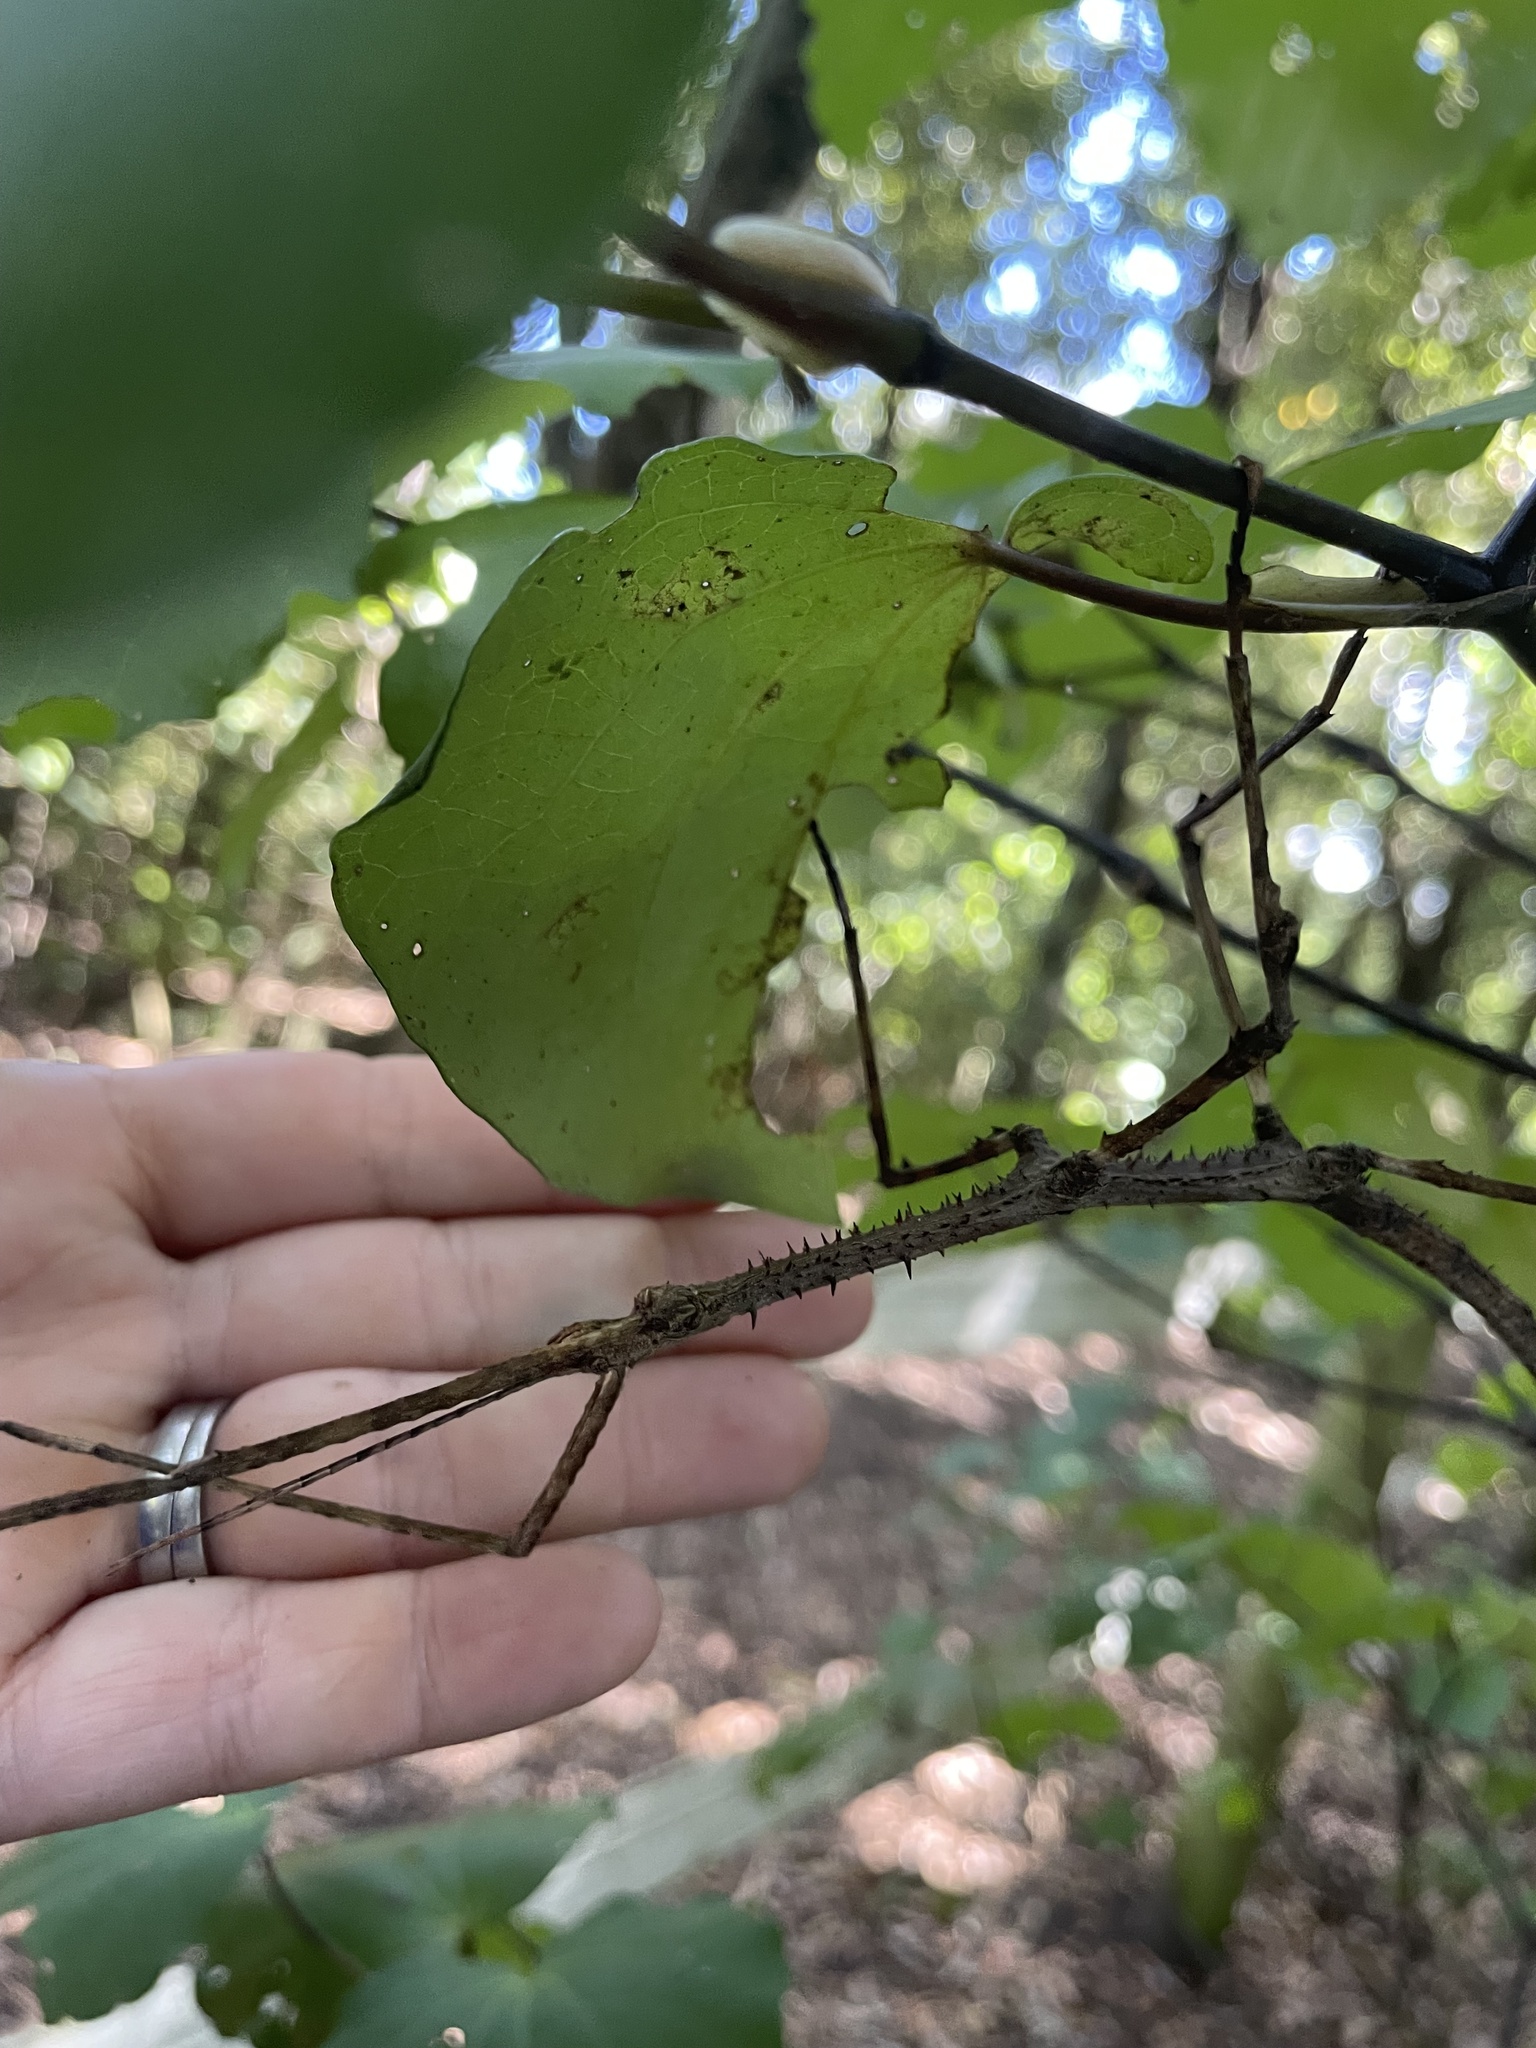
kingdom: Animalia
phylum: Arthropoda
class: Insecta
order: Phasmida
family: Phasmatidae
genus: Argosarchus
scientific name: Argosarchus horridus
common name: Bristly stick insect
